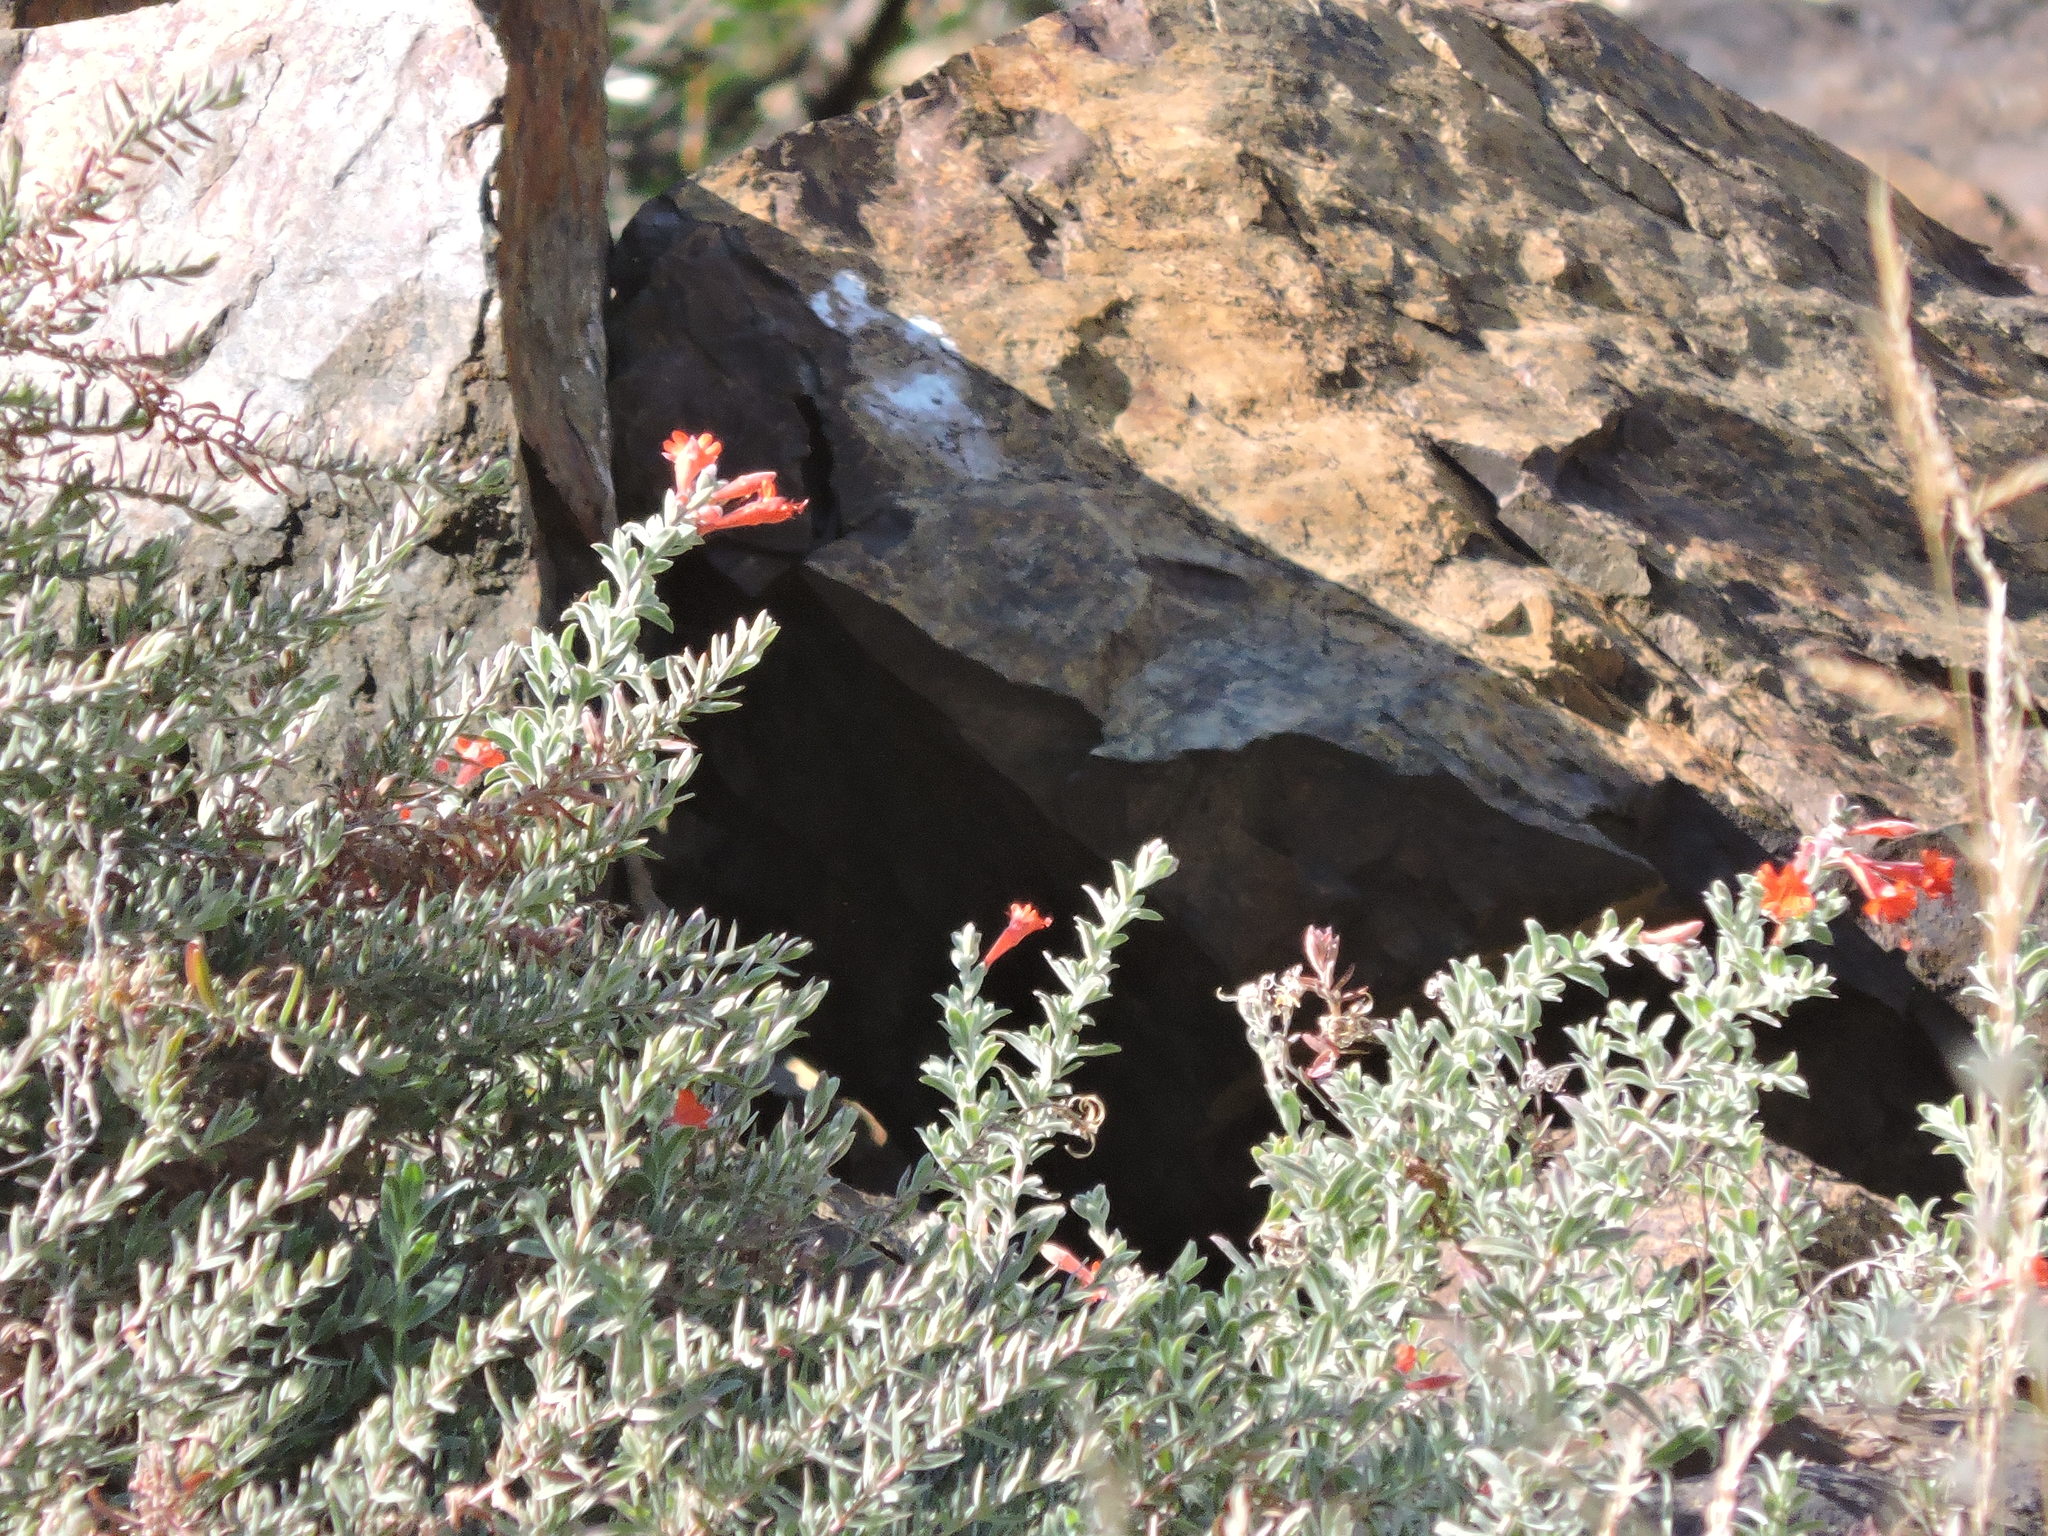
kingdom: Plantae
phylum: Tracheophyta
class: Magnoliopsida
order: Myrtales
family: Onagraceae
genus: Epilobium
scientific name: Epilobium canum
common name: California-fuchsia
